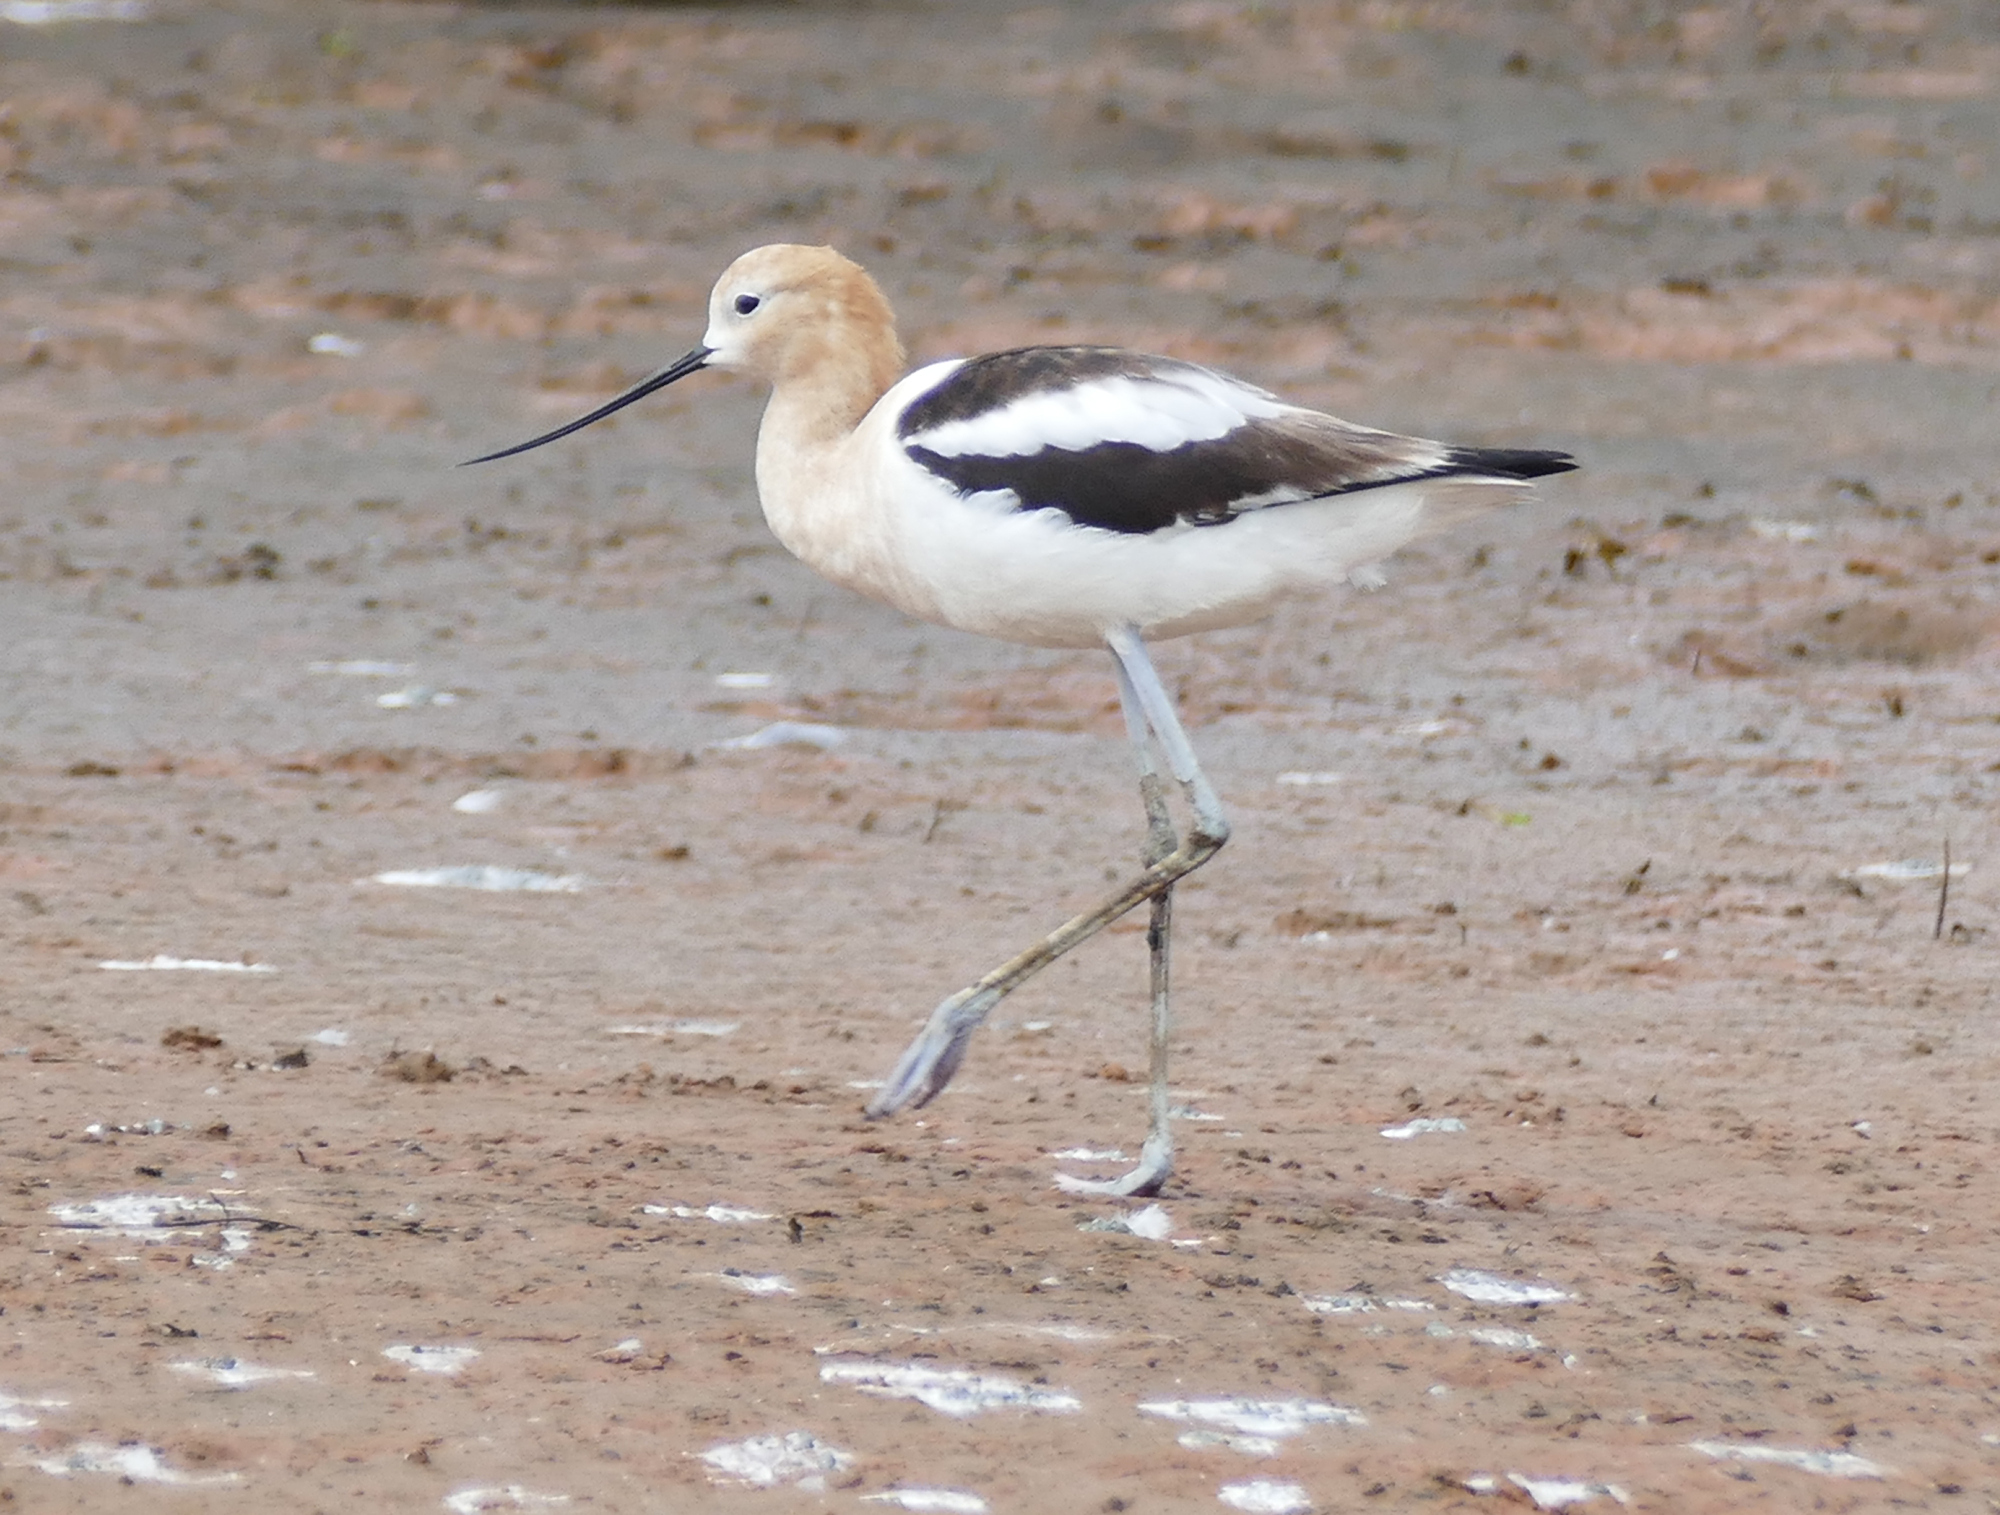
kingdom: Animalia
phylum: Chordata
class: Aves
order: Charadriiformes
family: Recurvirostridae
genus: Recurvirostra
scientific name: Recurvirostra americana
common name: American avocet
